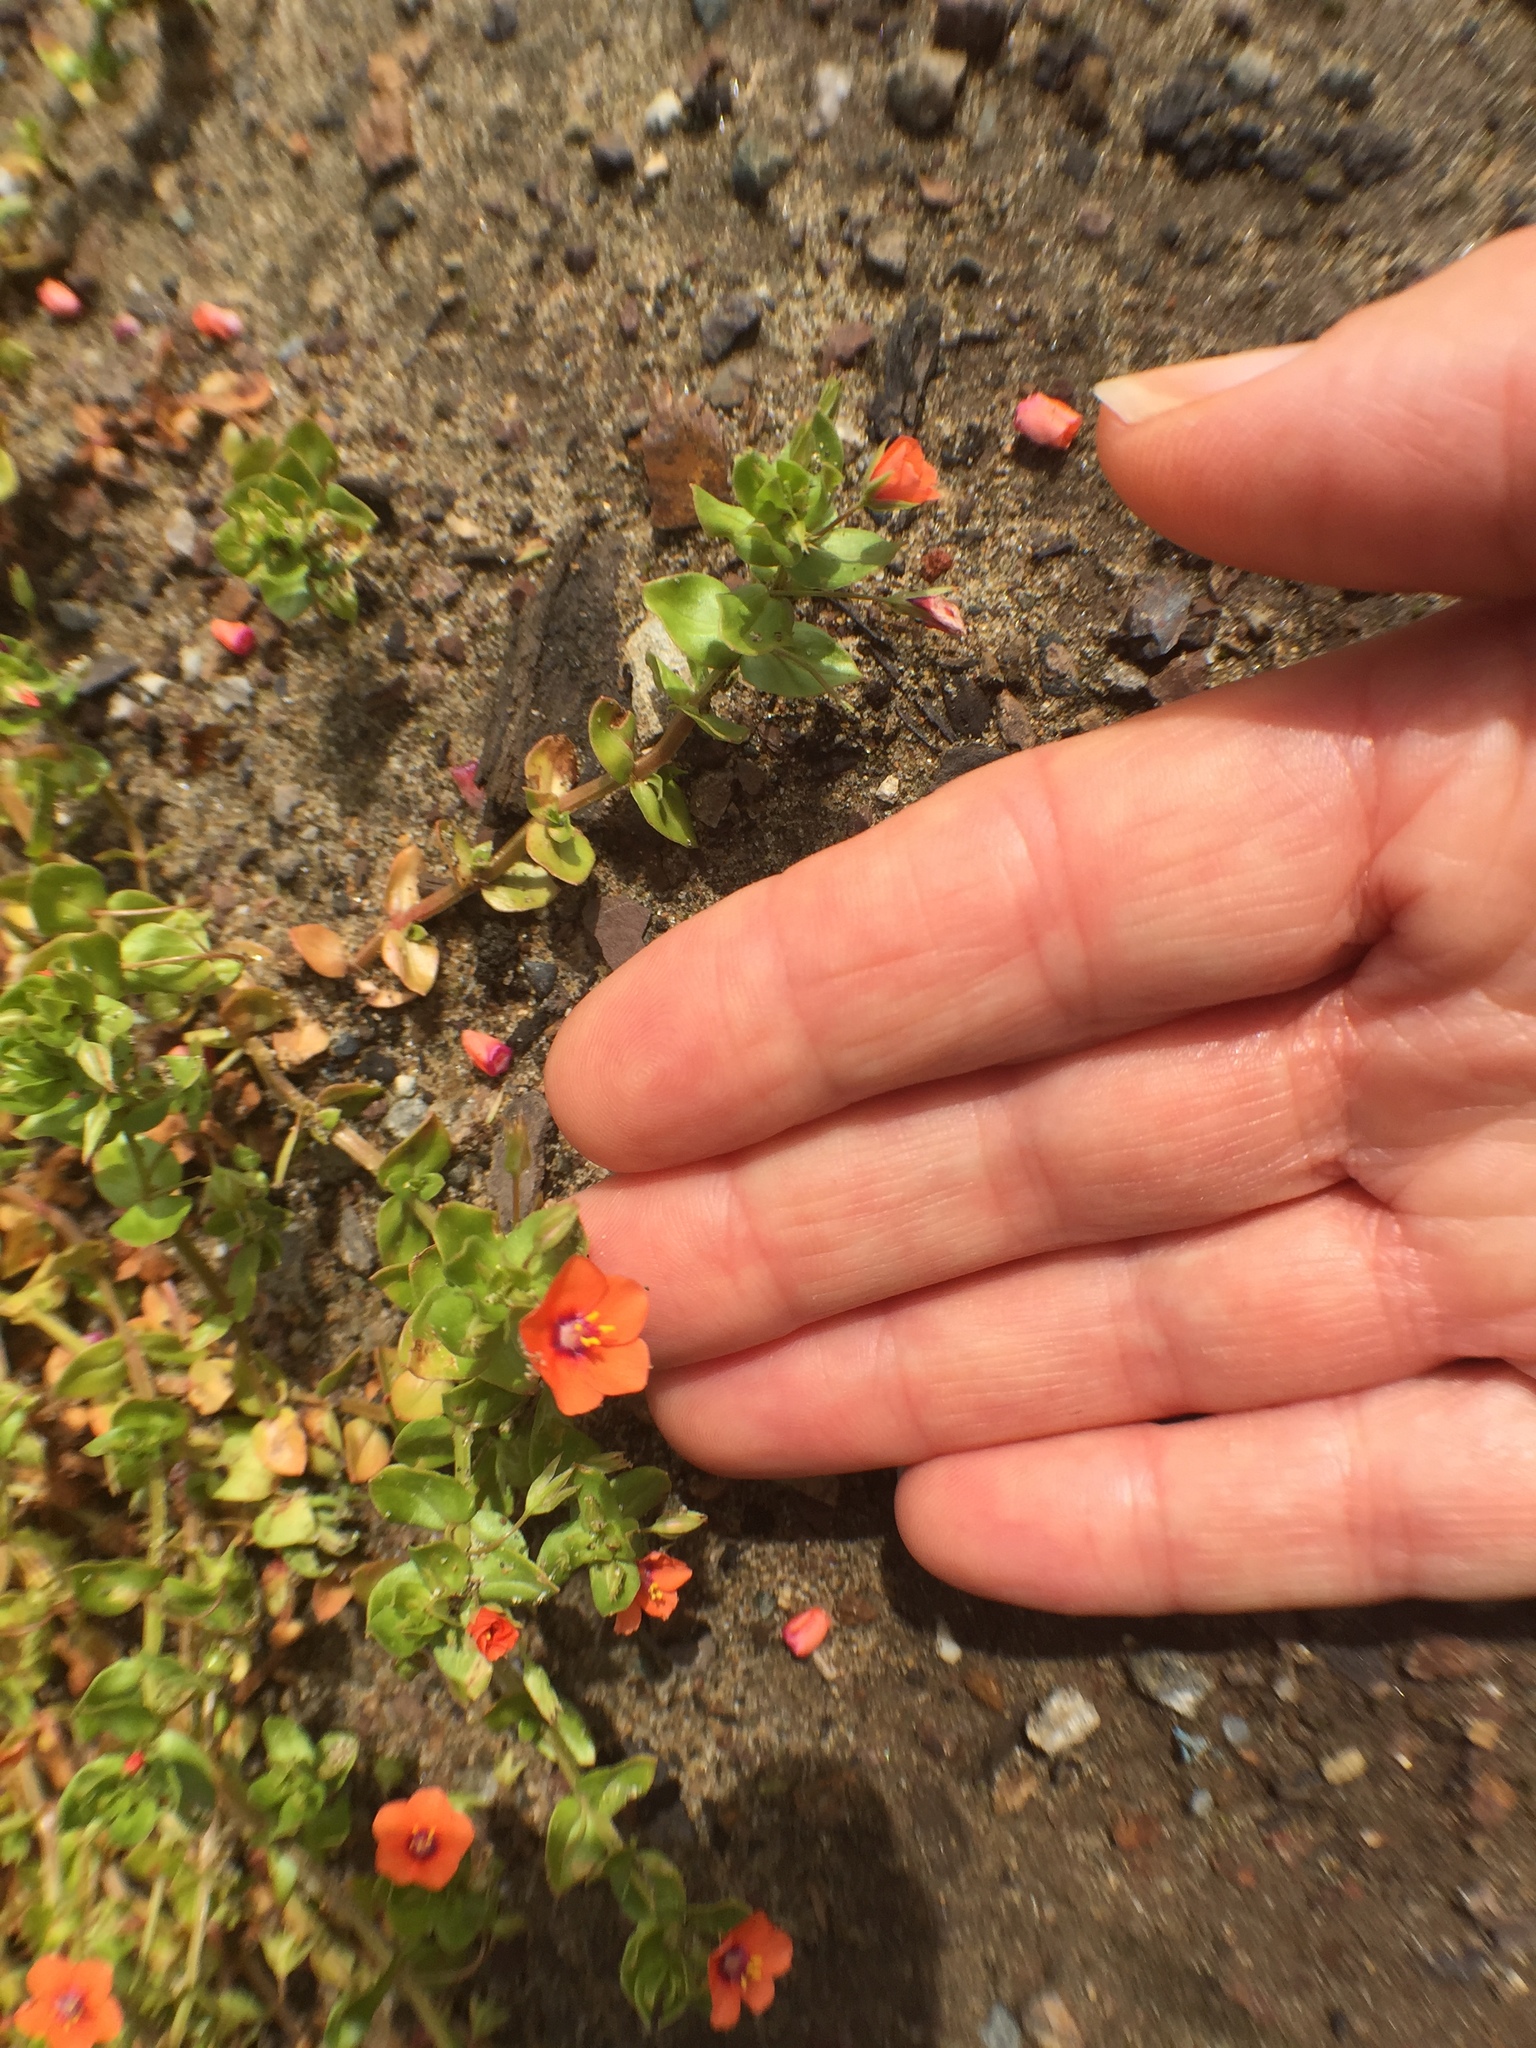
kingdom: Plantae
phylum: Tracheophyta
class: Magnoliopsida
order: Ericales
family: Primulaceae
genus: Lysimachia
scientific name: Lysimachia arvensis
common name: Scarlet pimpernel
